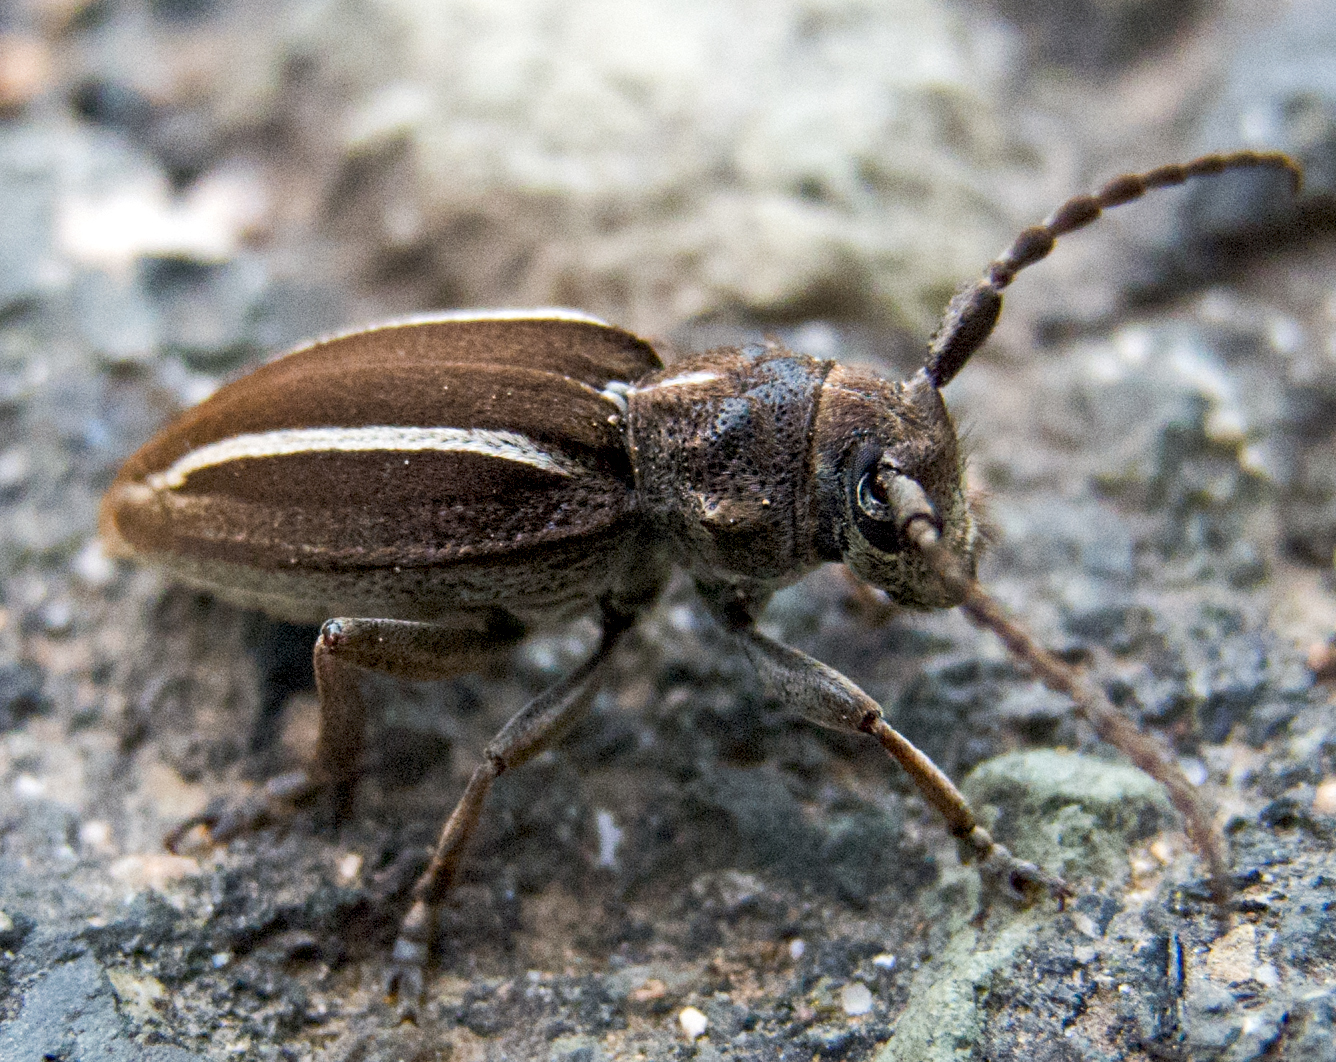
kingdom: Animalia
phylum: Arthropoda
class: Insecta
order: Coleoptera
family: Cerambycidae
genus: Neodorcadion
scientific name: Neodorcadion bilineatum
